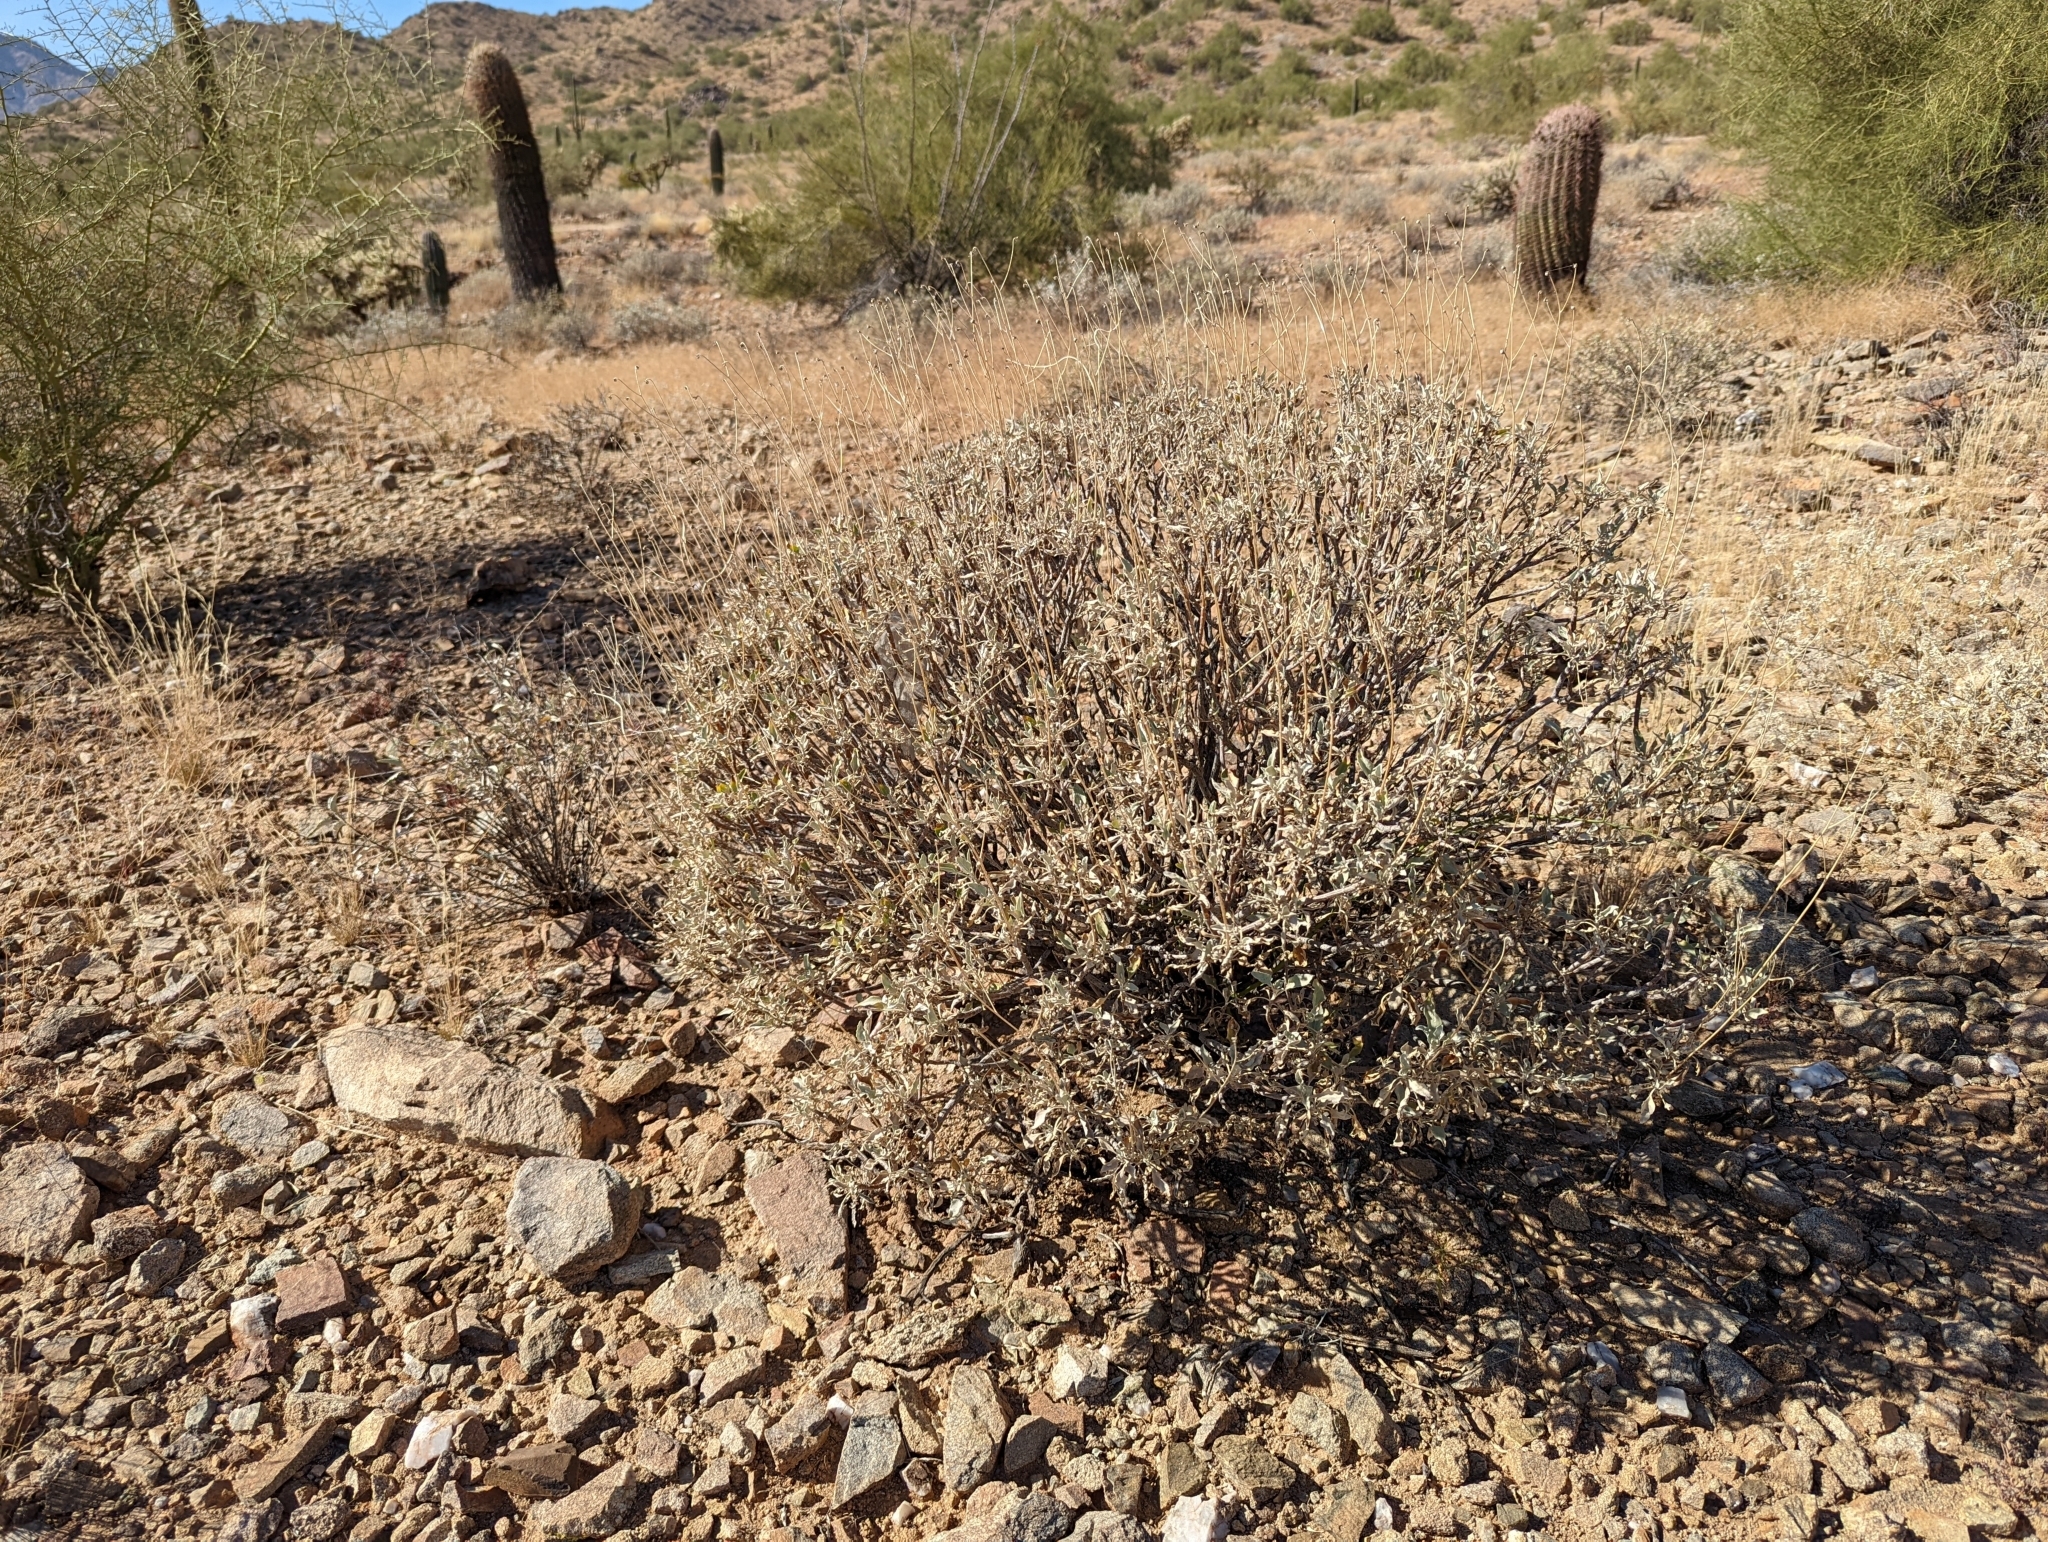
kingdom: Plantae
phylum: Tracheophyta
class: Magnoliopsida
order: Asterales
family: Asteraceae
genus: Encelia
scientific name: Encelia farinosa
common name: Brittlebush
